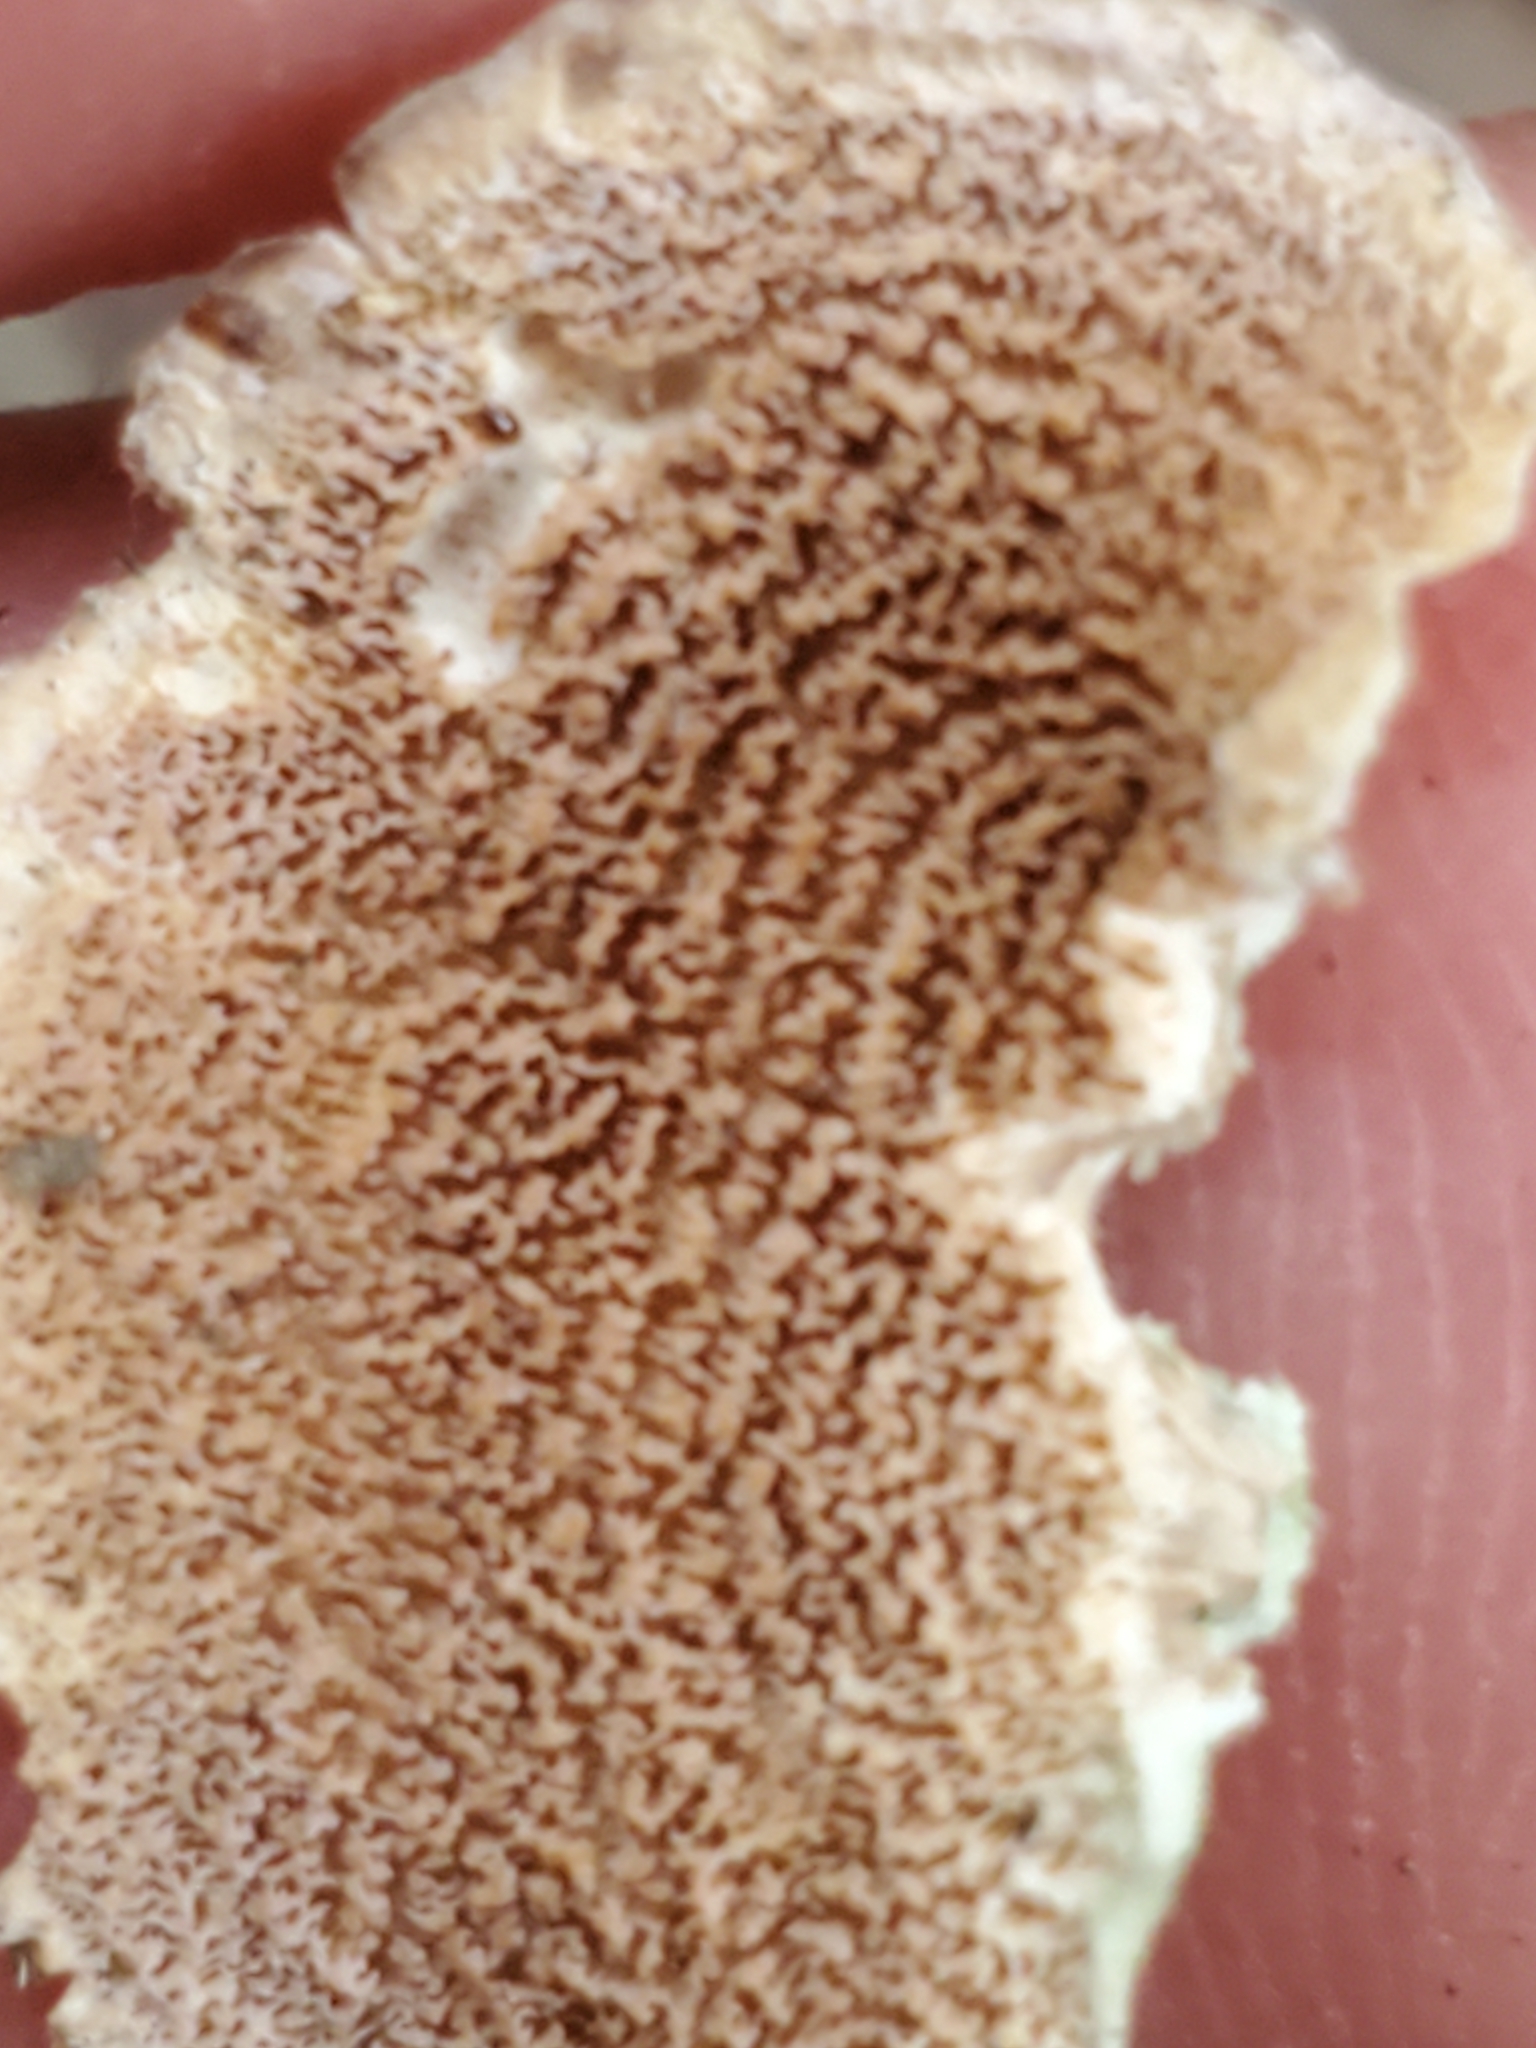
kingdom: Fungi
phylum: Basidiomycota
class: Agaricomycetes
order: Hymenochaetales
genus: Trichaptum
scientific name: Trichaptum biforme
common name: Violet-toothed polypore
